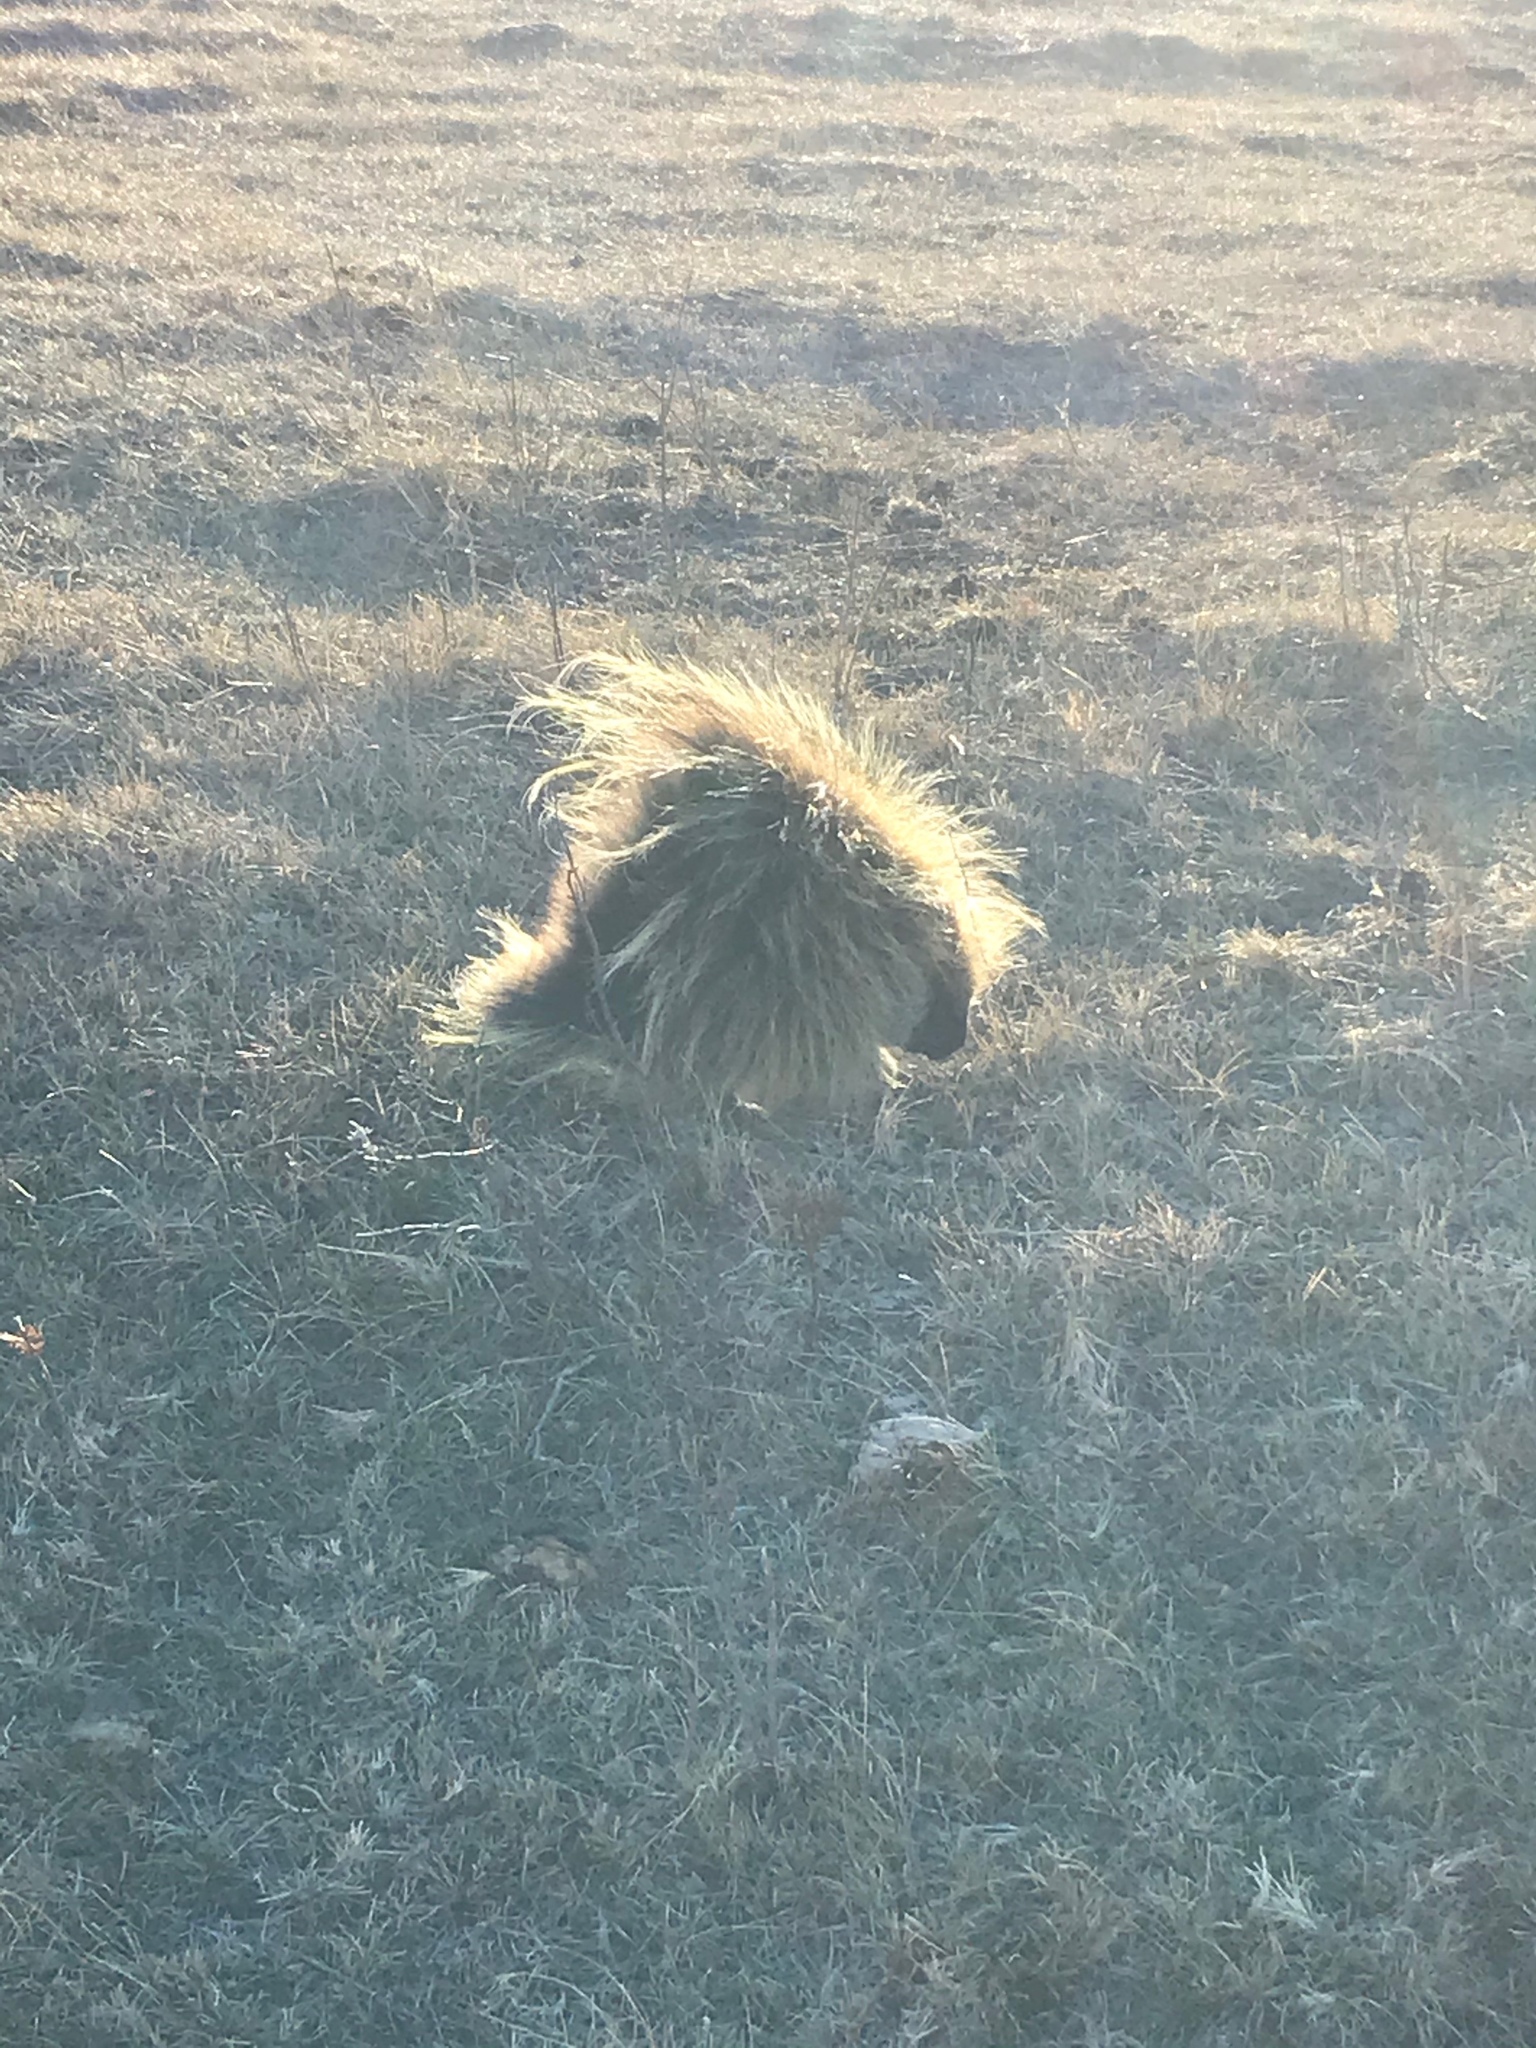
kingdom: Animalia
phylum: Chordata
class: Mammalia
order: Rodentia
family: Erethizontidae
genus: Erethizon
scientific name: Erethizon dorsatus
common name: North american porcupine
